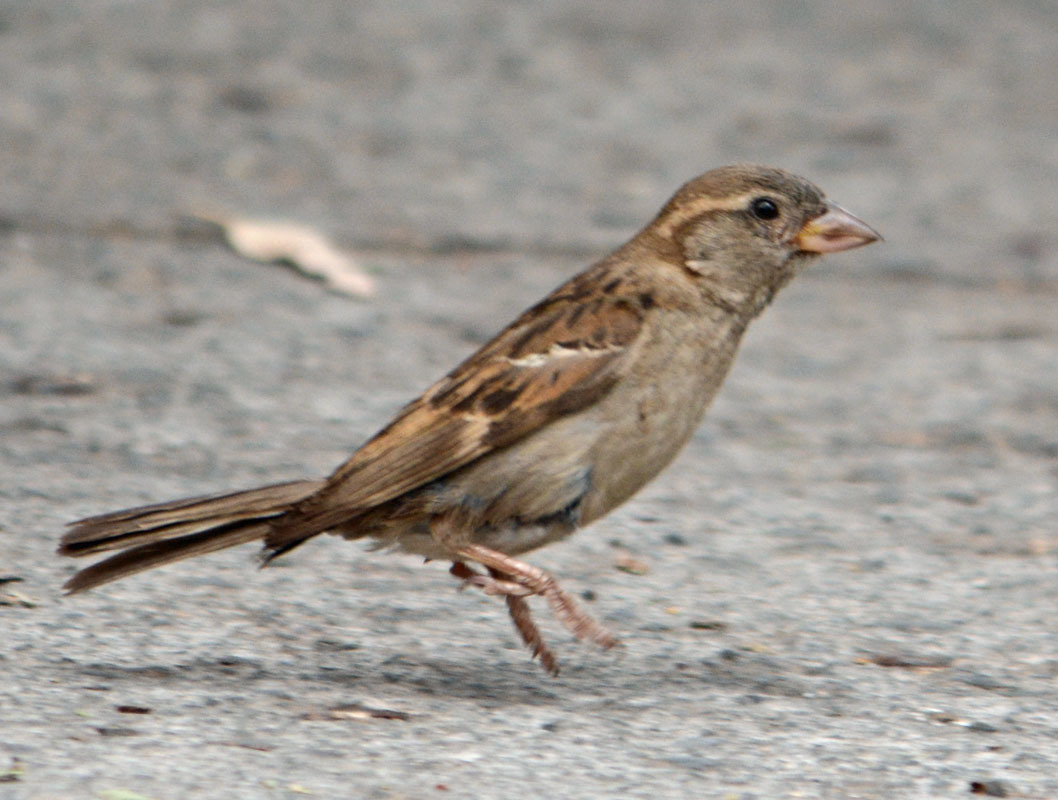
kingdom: Animalia
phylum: Chordata
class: Aves
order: Passeriformes
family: Passeridae
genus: Passer
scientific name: Passer domesticus
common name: House sparrow
